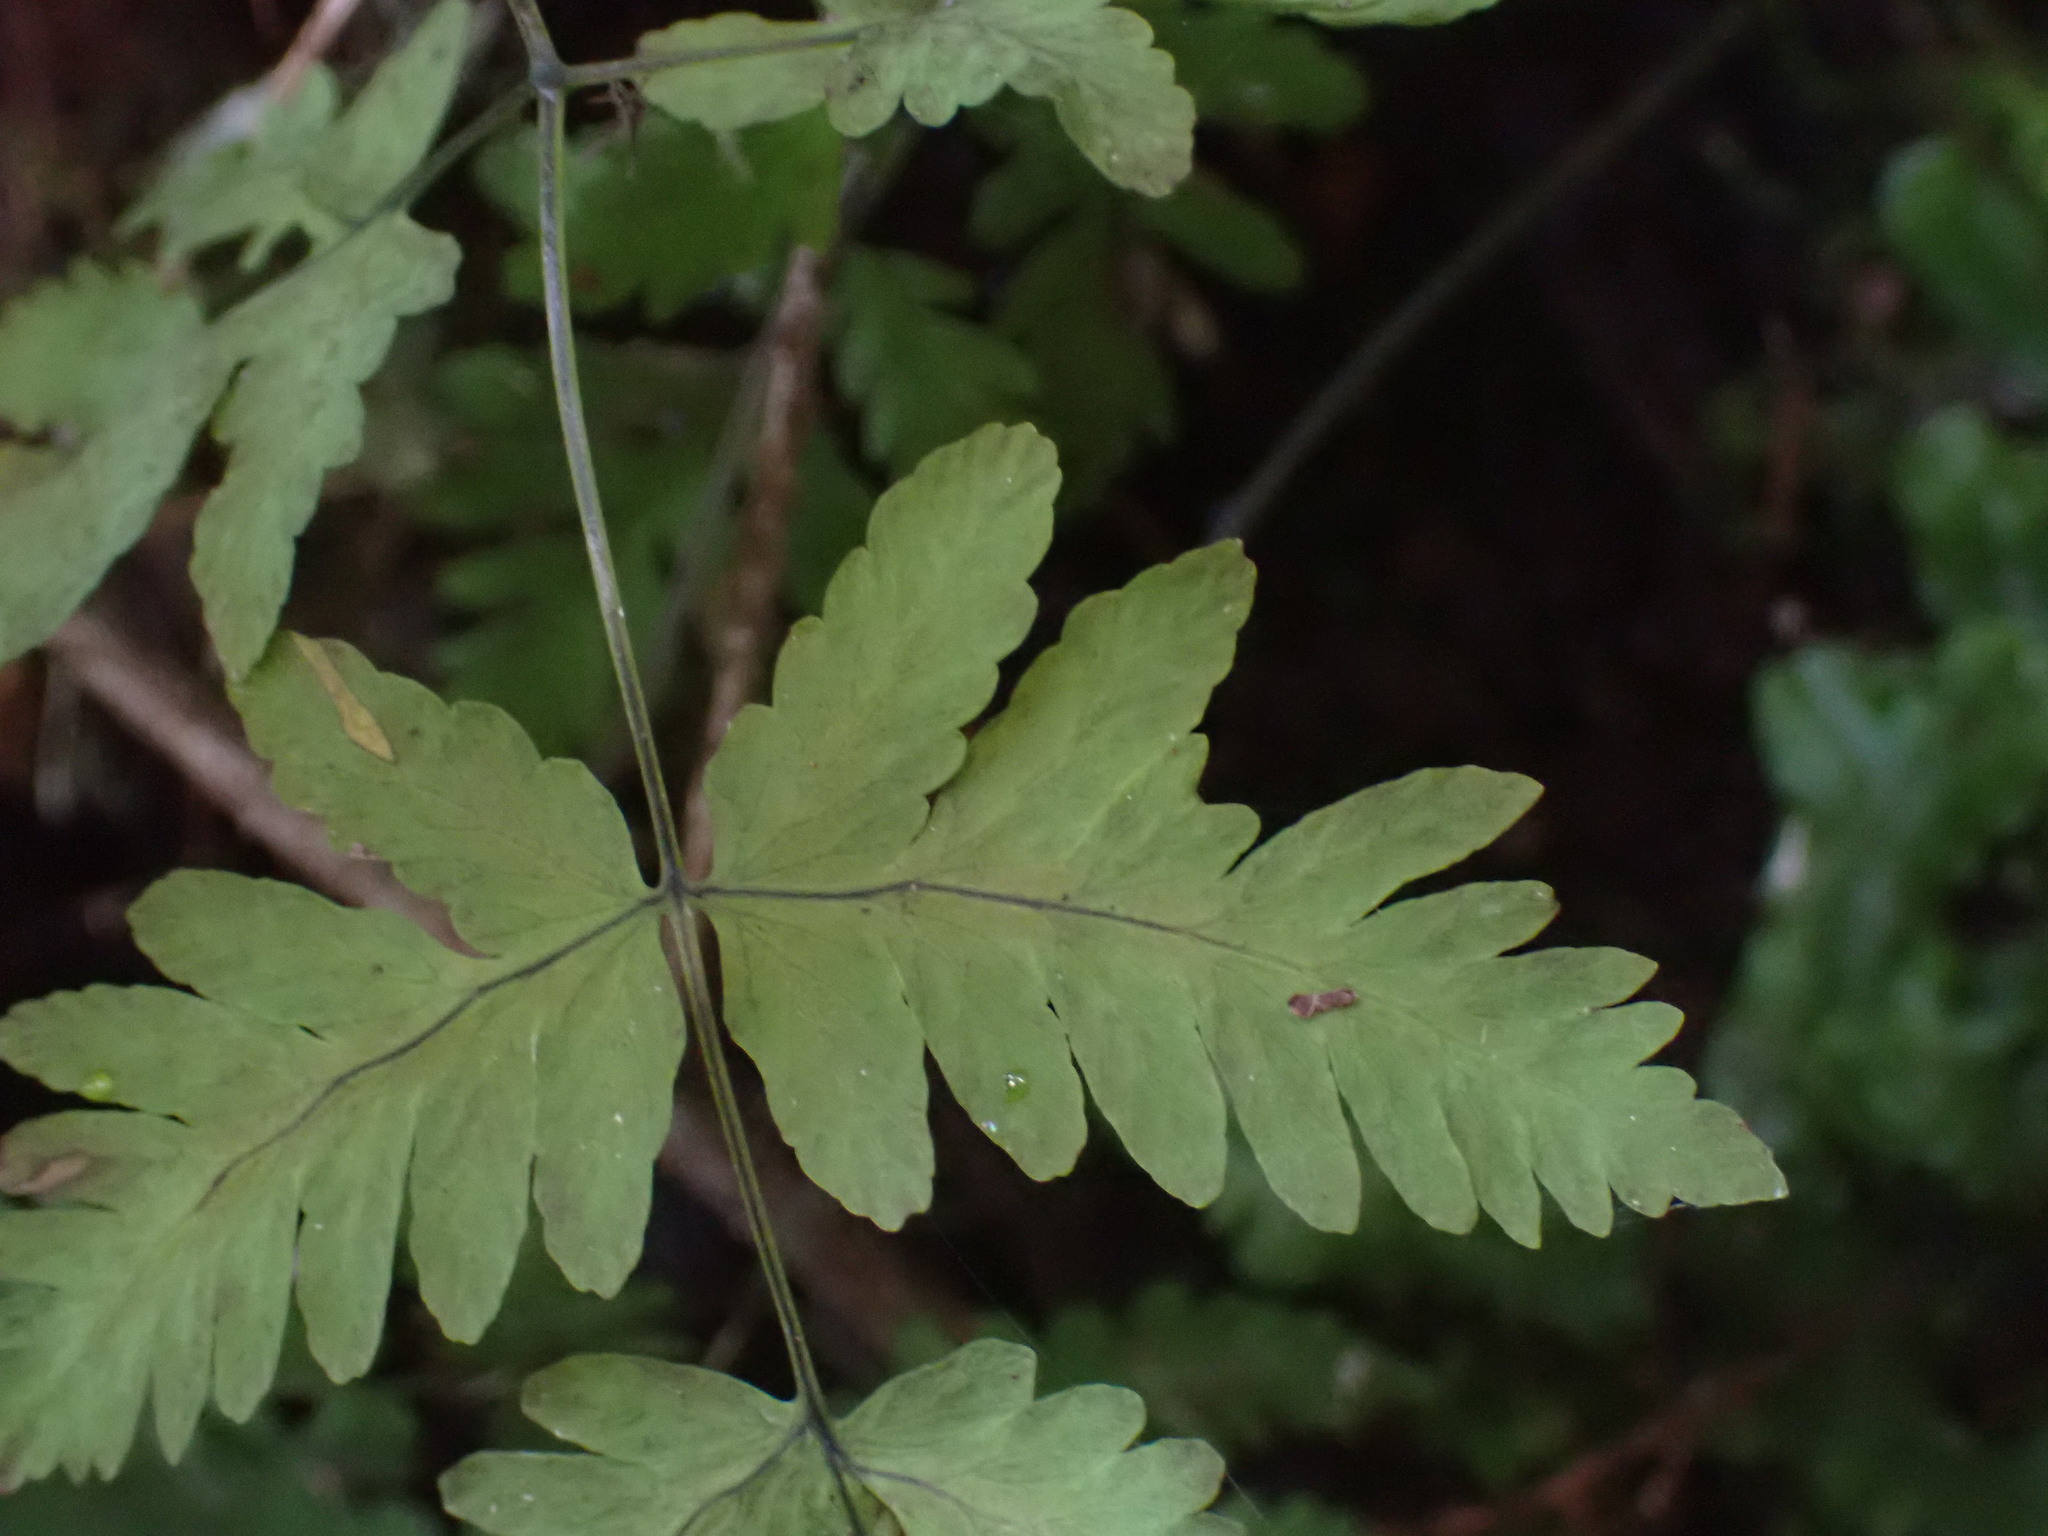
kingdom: Plantae
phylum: Tracheophyta
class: Polypodiopsida
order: Polypodiales
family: Cystopteridaceae
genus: Gymnocarpium
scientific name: Gymnocarpium dryopteris
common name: Oak fern
